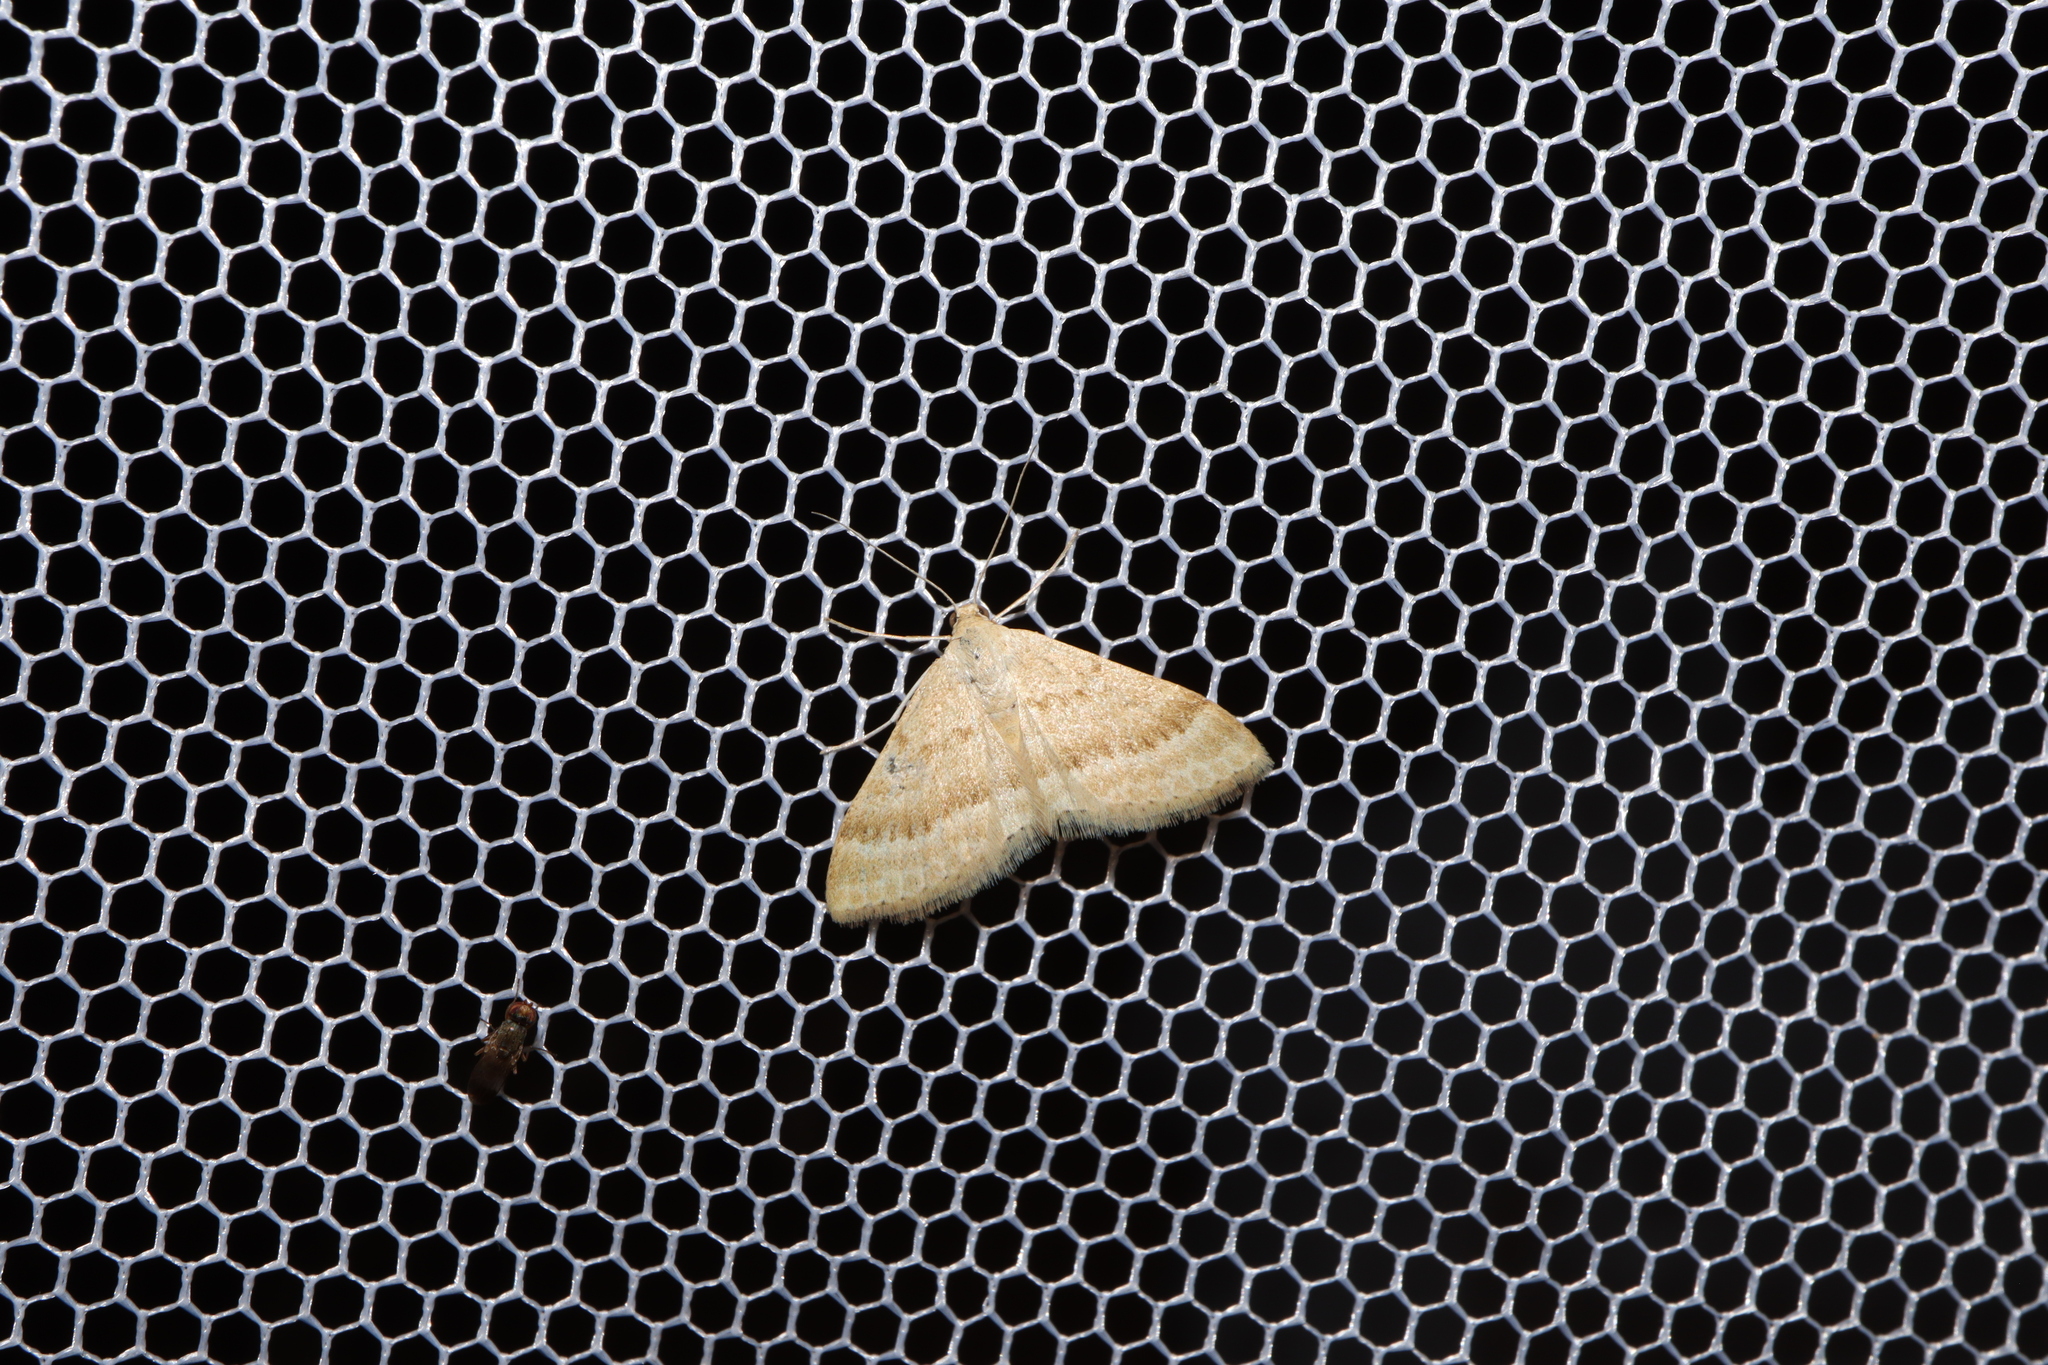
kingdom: Animalia
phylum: Arthropoda
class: Insecta
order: Lepidoptera
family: Geometridae
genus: Scopula
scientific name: Scopula lydia
